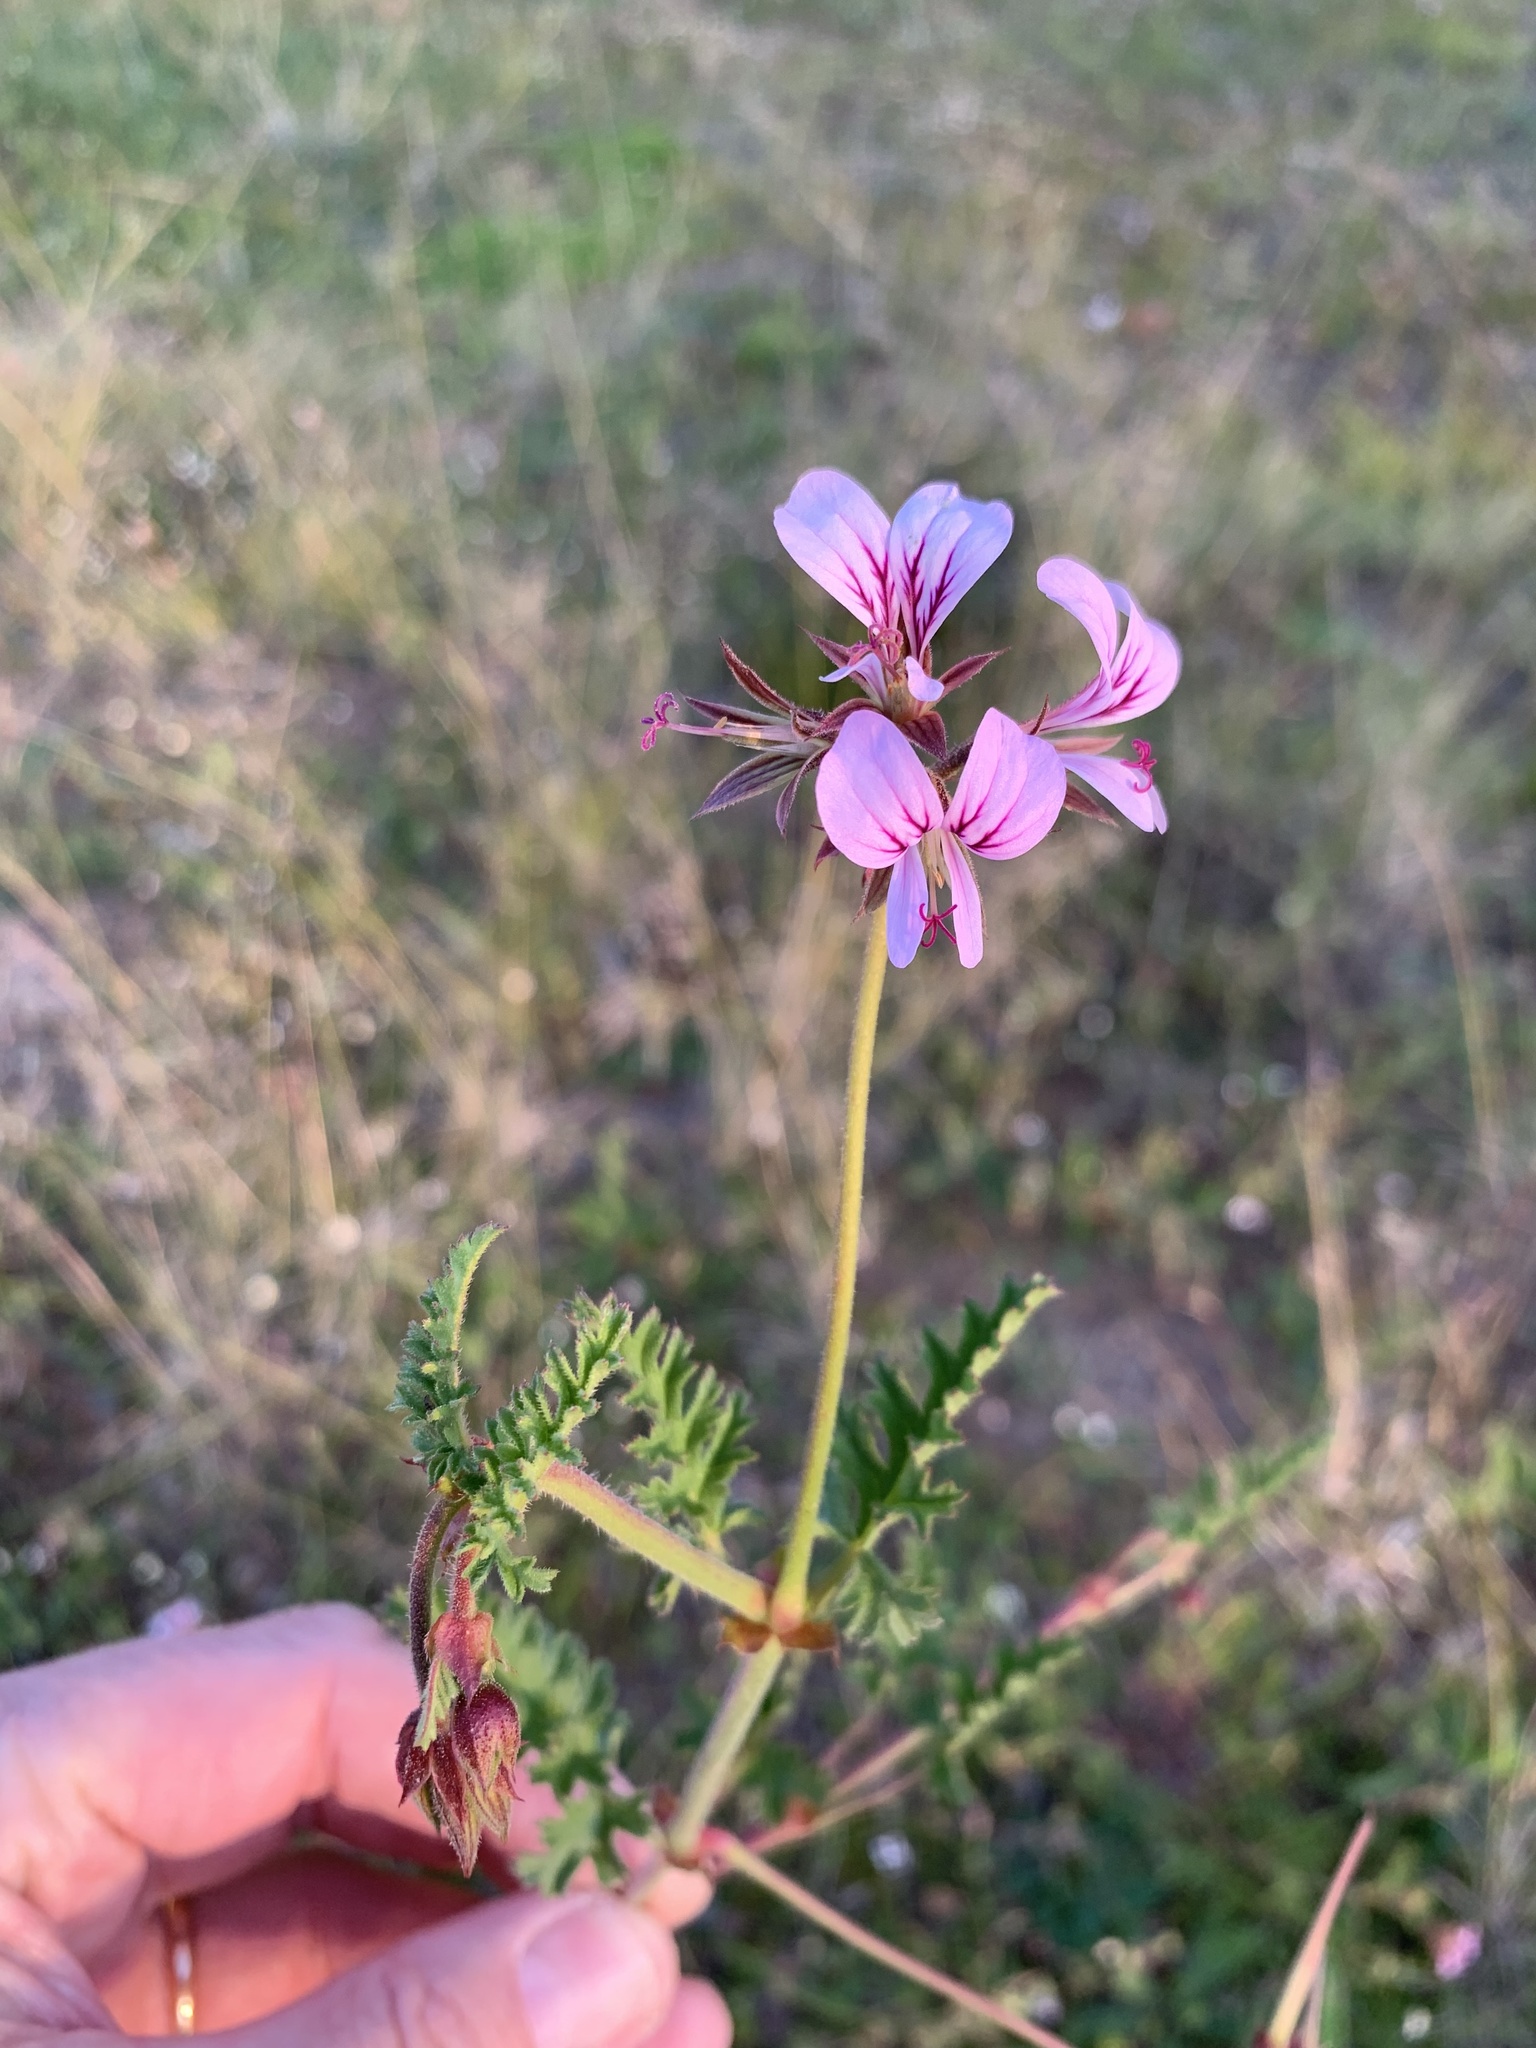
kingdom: Plantae
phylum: Tracheophyta
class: Magnoliopsida
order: Geraniales
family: Geraniaceae
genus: Pelargonium
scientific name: Pelargonium myrrhifolium
